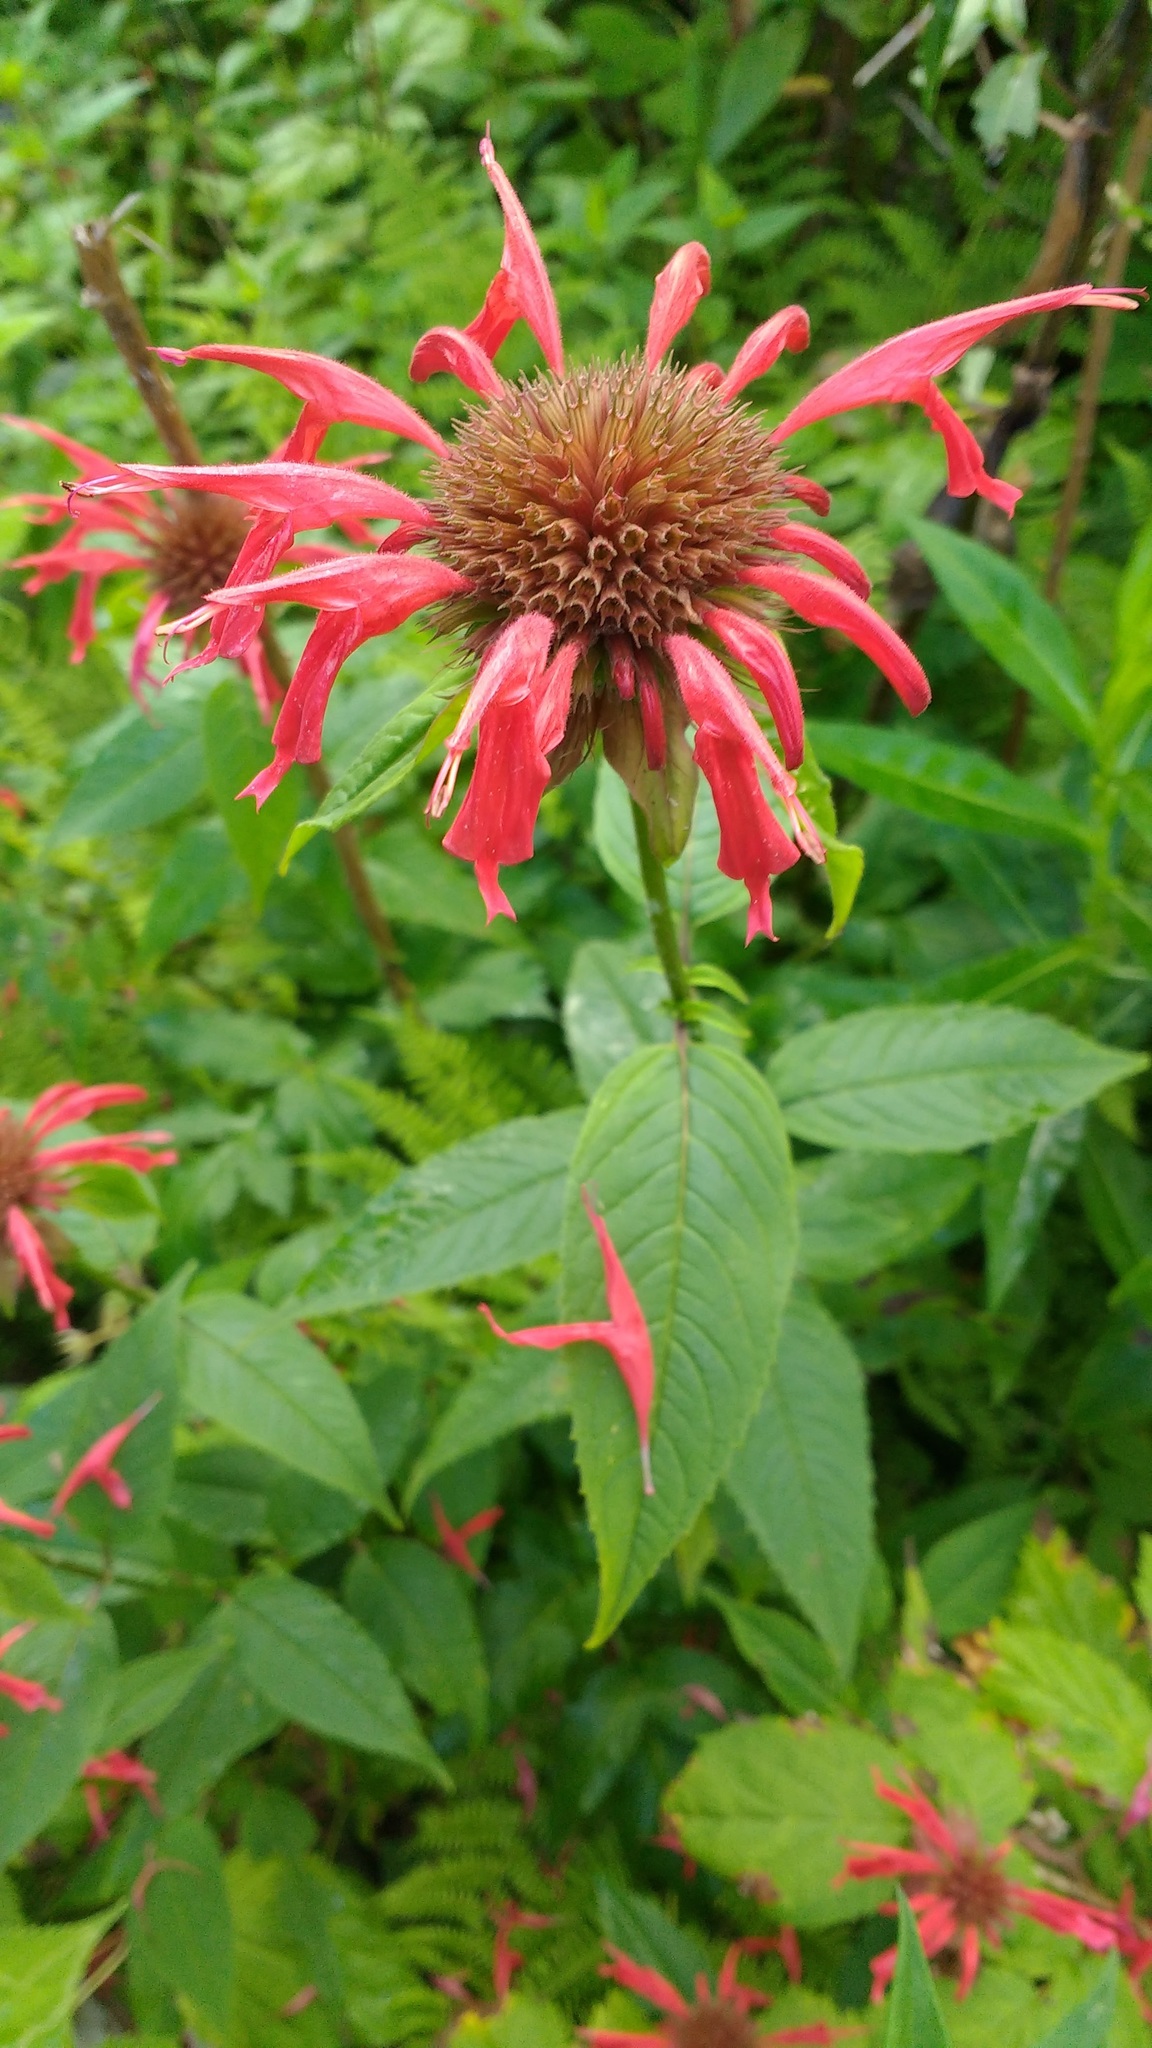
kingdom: Plantae
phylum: Tracheophyta
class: Magnoliopsida
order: Lamiales
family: Lamiaceae
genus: Monarda
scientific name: Monarda didyma
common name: Beebalm
